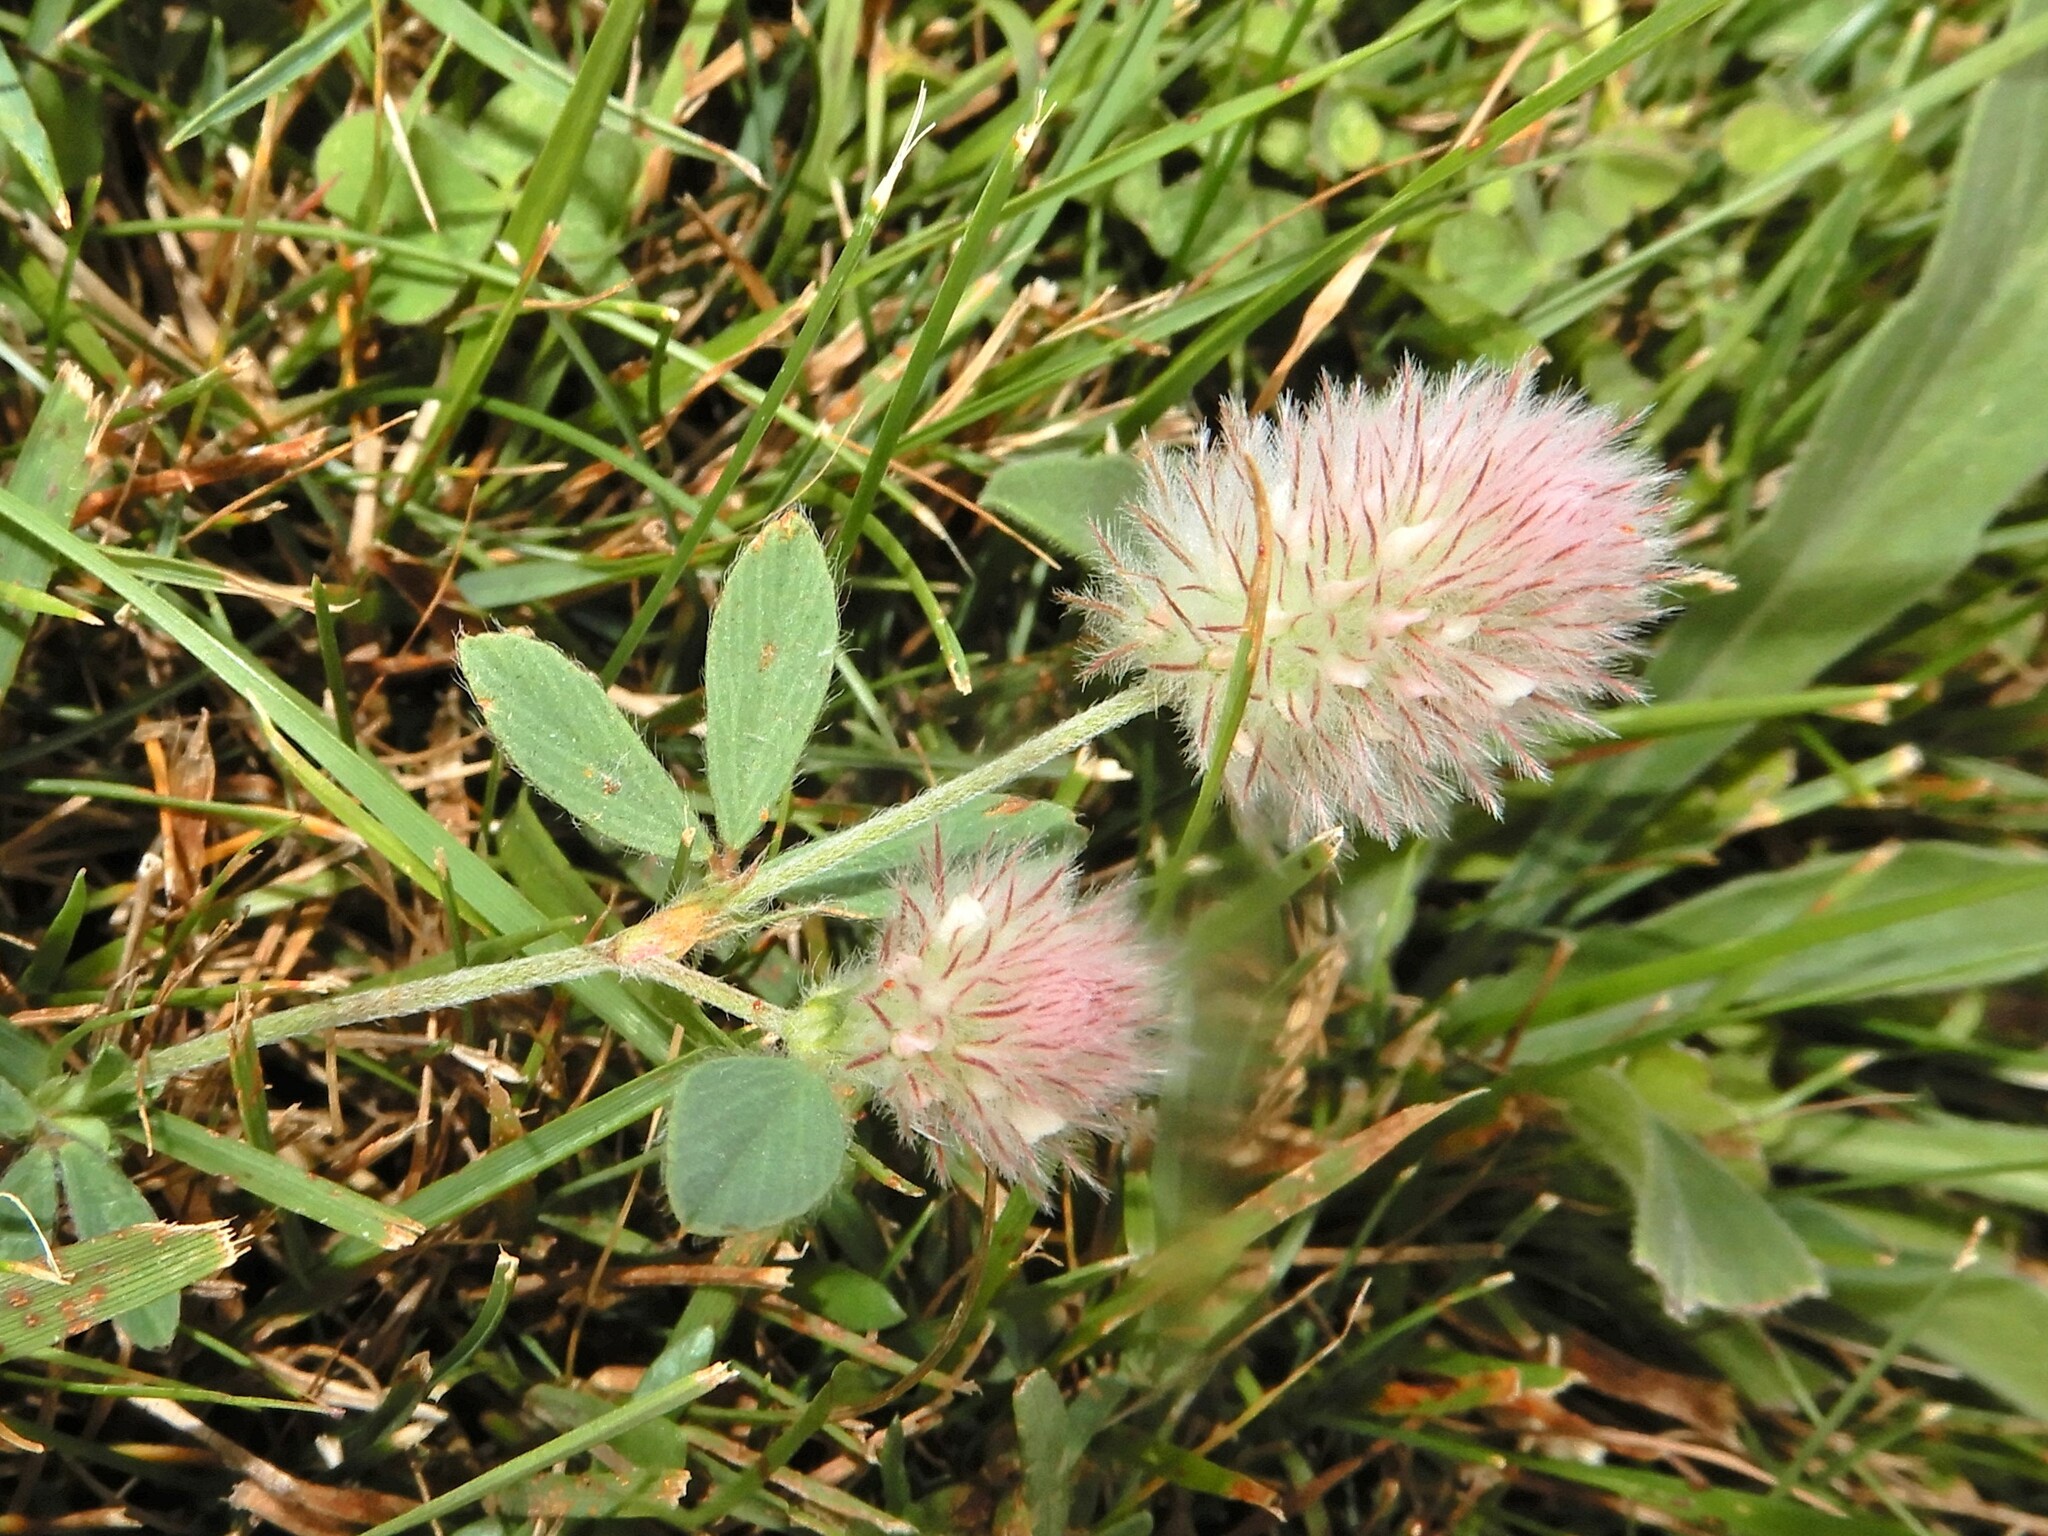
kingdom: Plantae
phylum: Tracheophyta
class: Magnoliopsida
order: Fabales
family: Fabaceae
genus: Trifolium
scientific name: Trifolium arvense
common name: Hare's-foot clover
